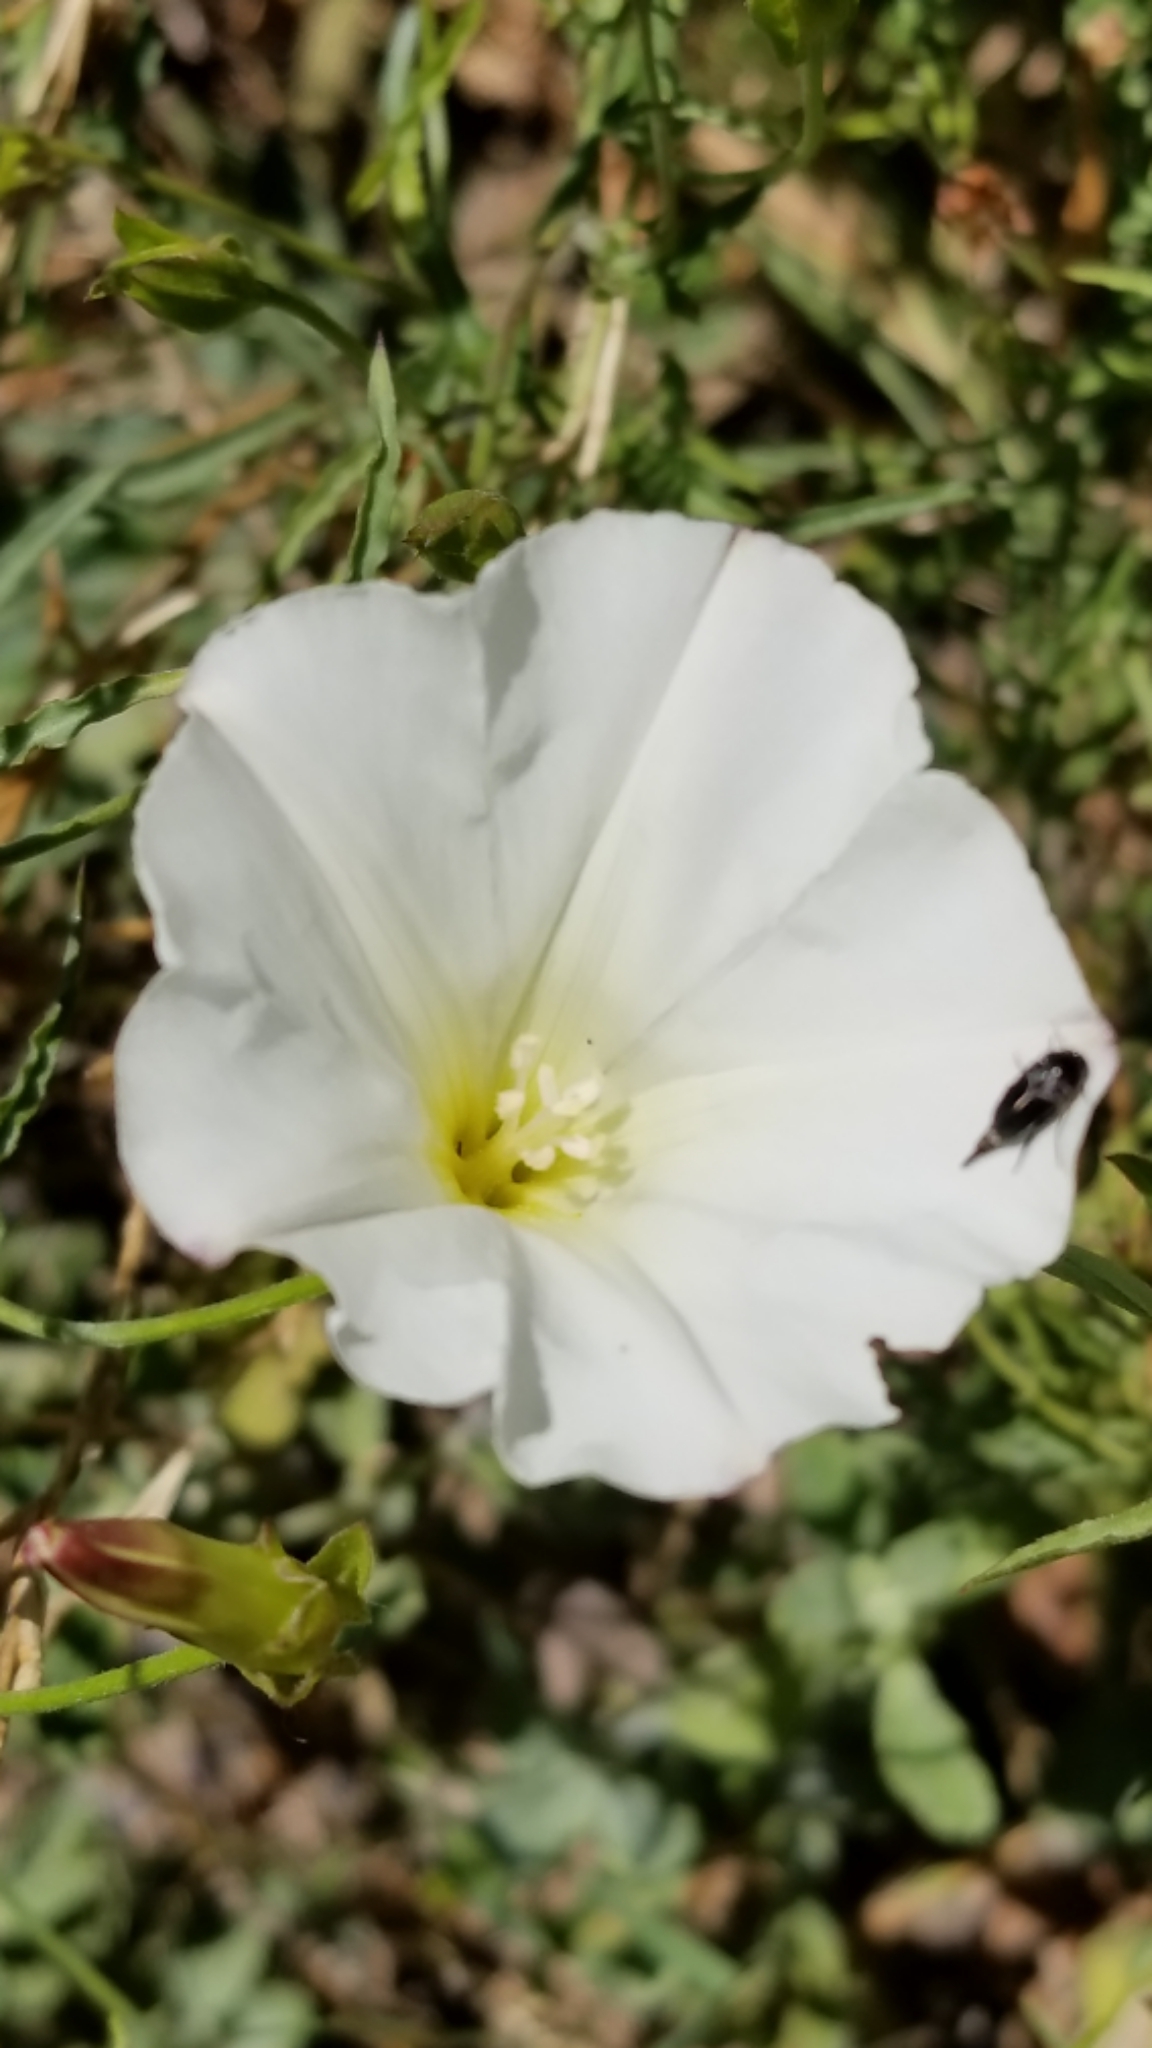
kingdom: Plantae
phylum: Tracheophyta
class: Magnoliopsida
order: Solanales
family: Convolvulaceae
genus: Calystegia
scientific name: Calystegia macrostegia
